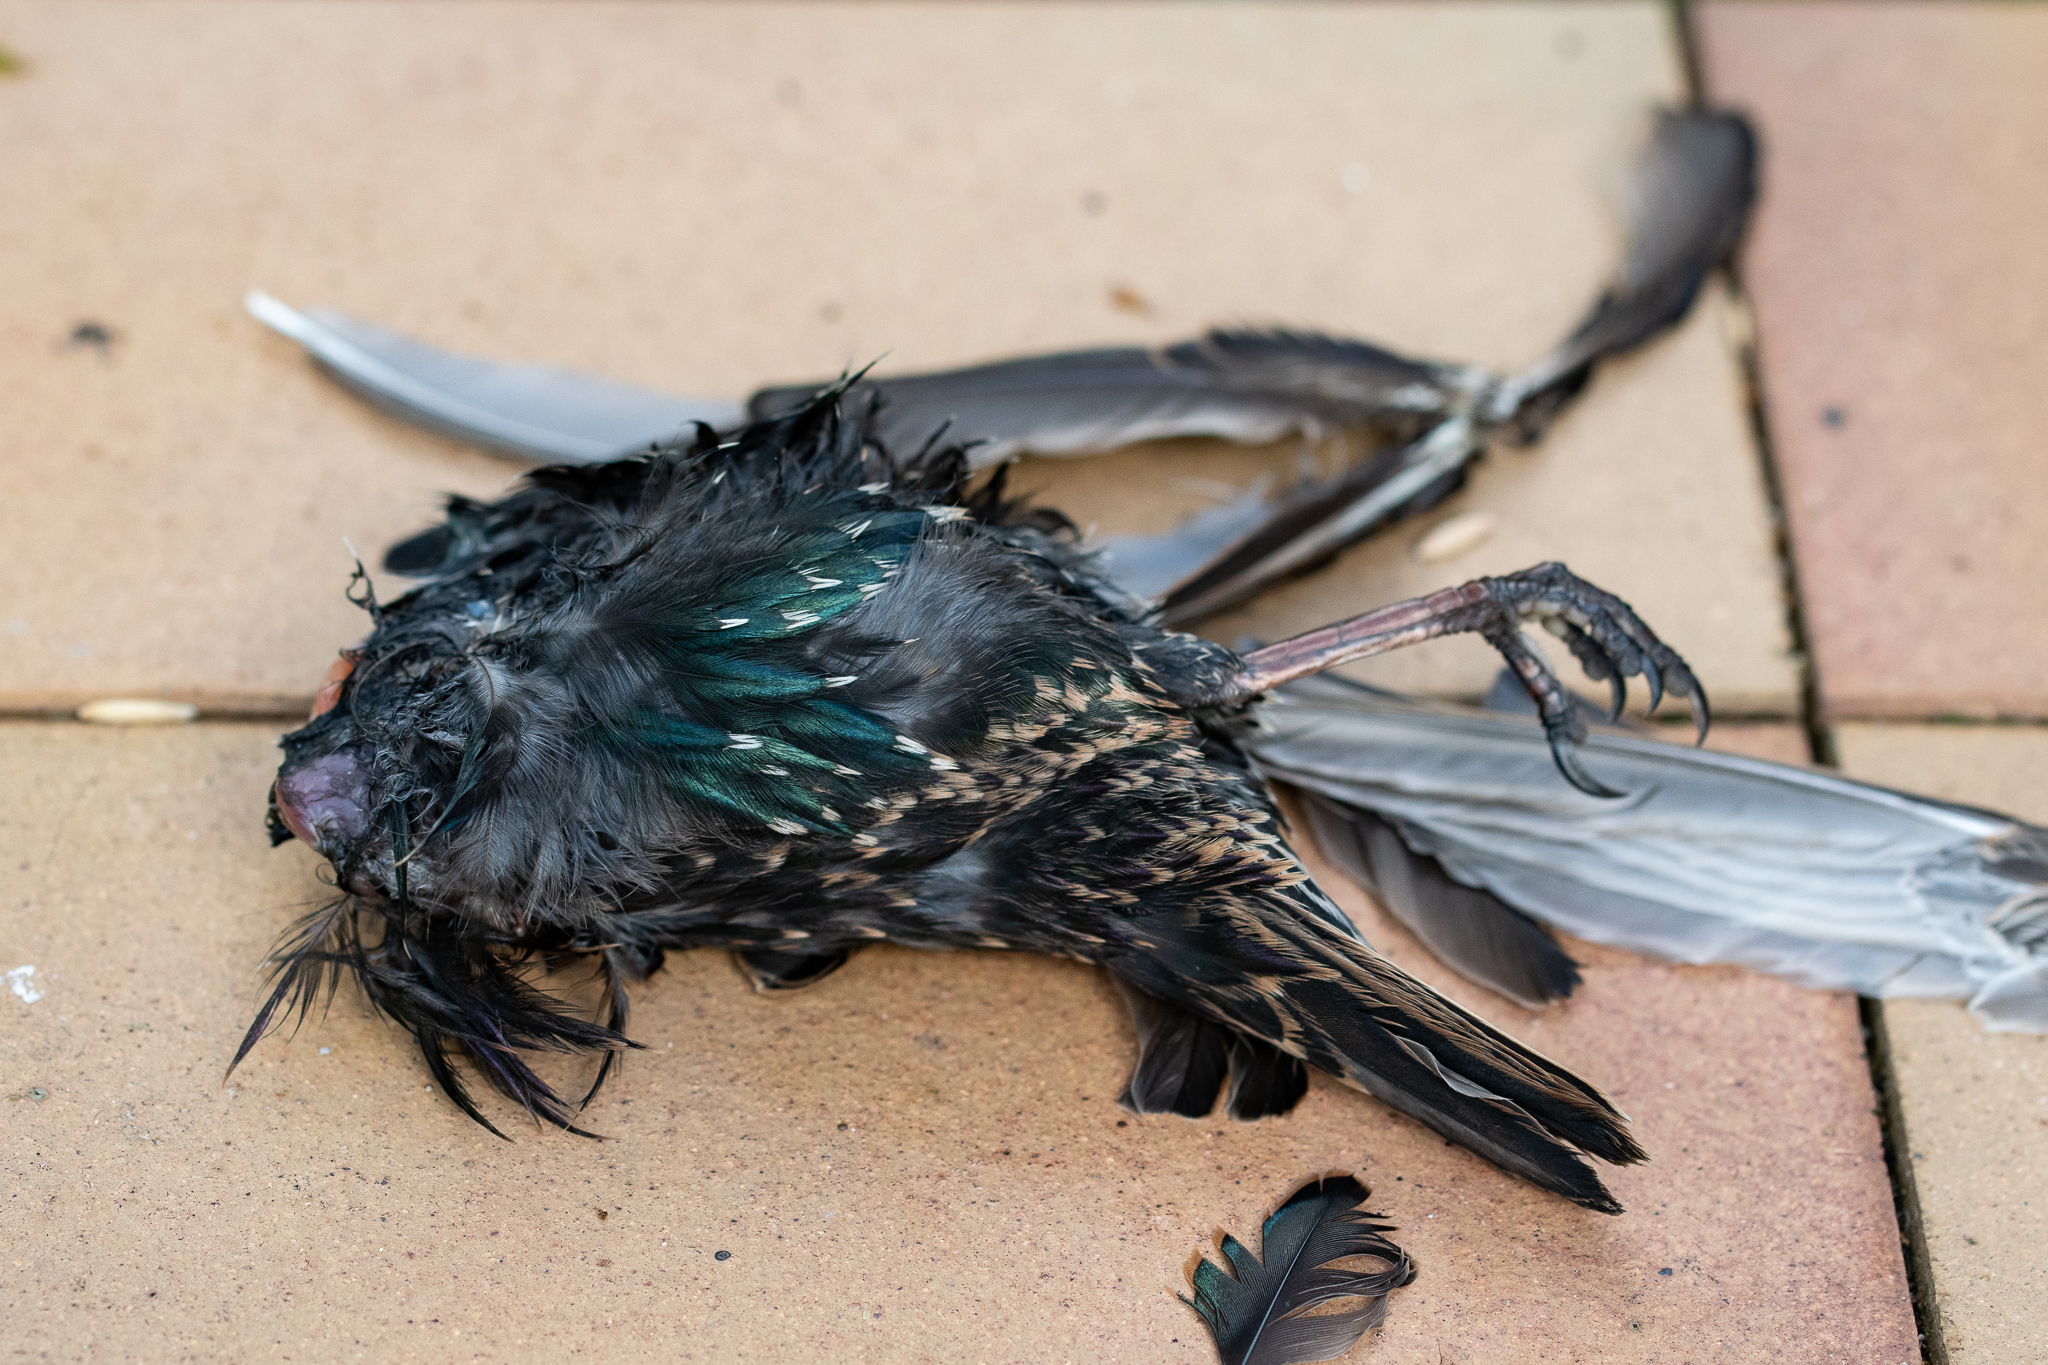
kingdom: Animalia
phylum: Chordata
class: Aves
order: Passeriformes
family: Sturnidae
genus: Sturnus
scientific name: Sturnus vulgaris
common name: Common starling
